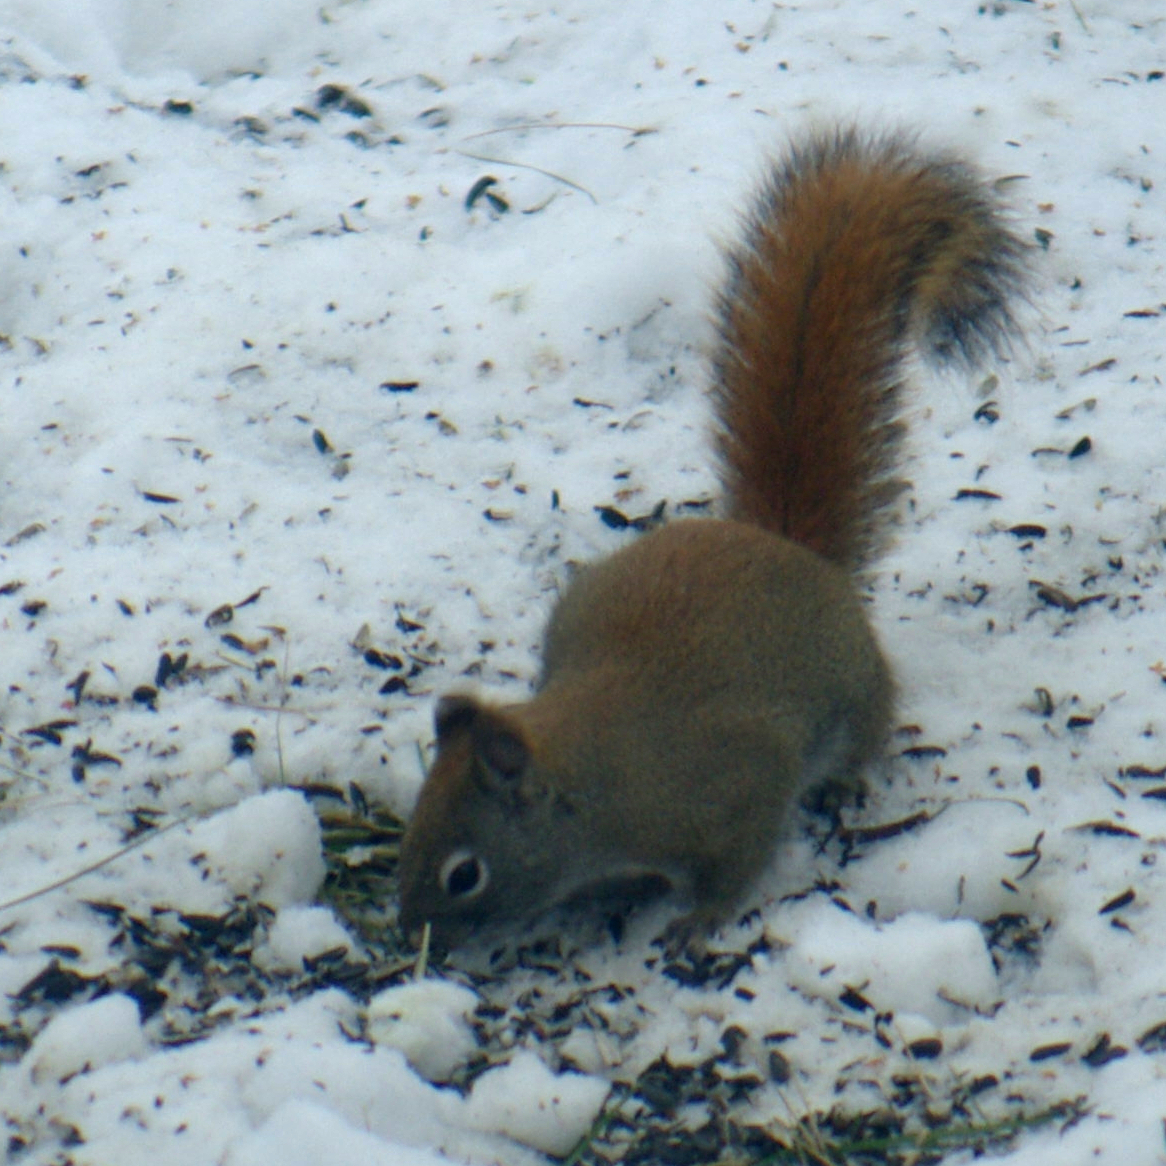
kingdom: Animalia
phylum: Chordata
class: Mammalia
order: Rodentia
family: Sciuridae
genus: Tamiasciurus
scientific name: Tamiasciurus hudsonicus
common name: Red squirrel
